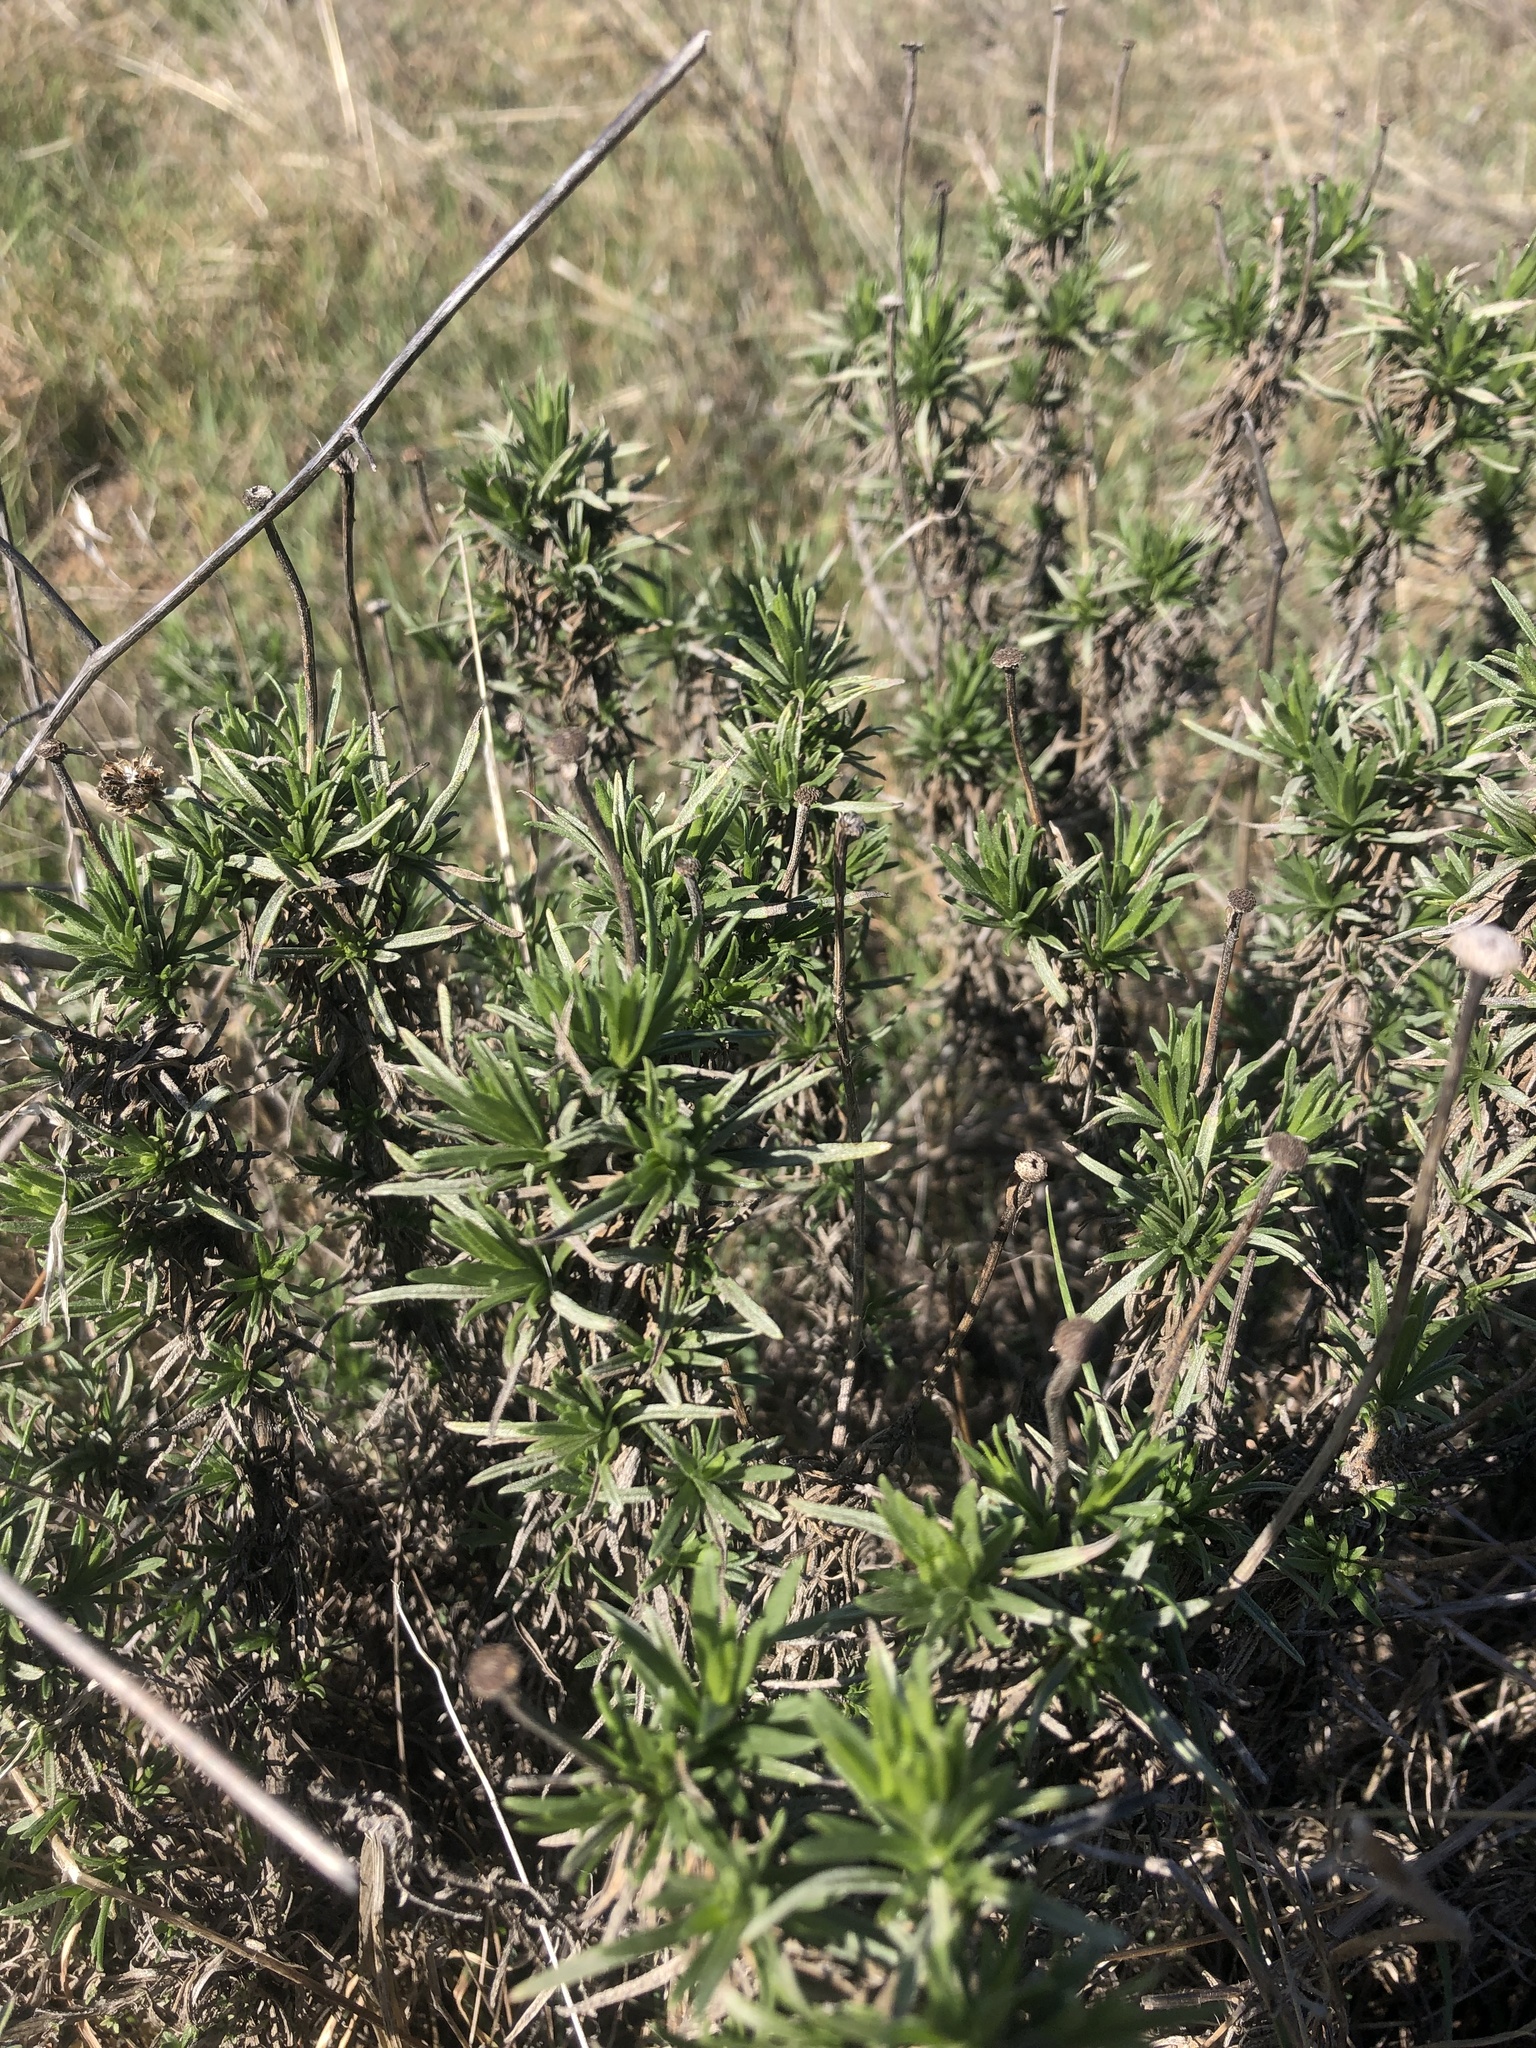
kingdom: Plantae
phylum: Tracheophyta
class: Magnoliopsida
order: Asterales
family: Asteraceae
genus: Ericameria
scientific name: Ericameria linearifolia
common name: Interior goldenbush
